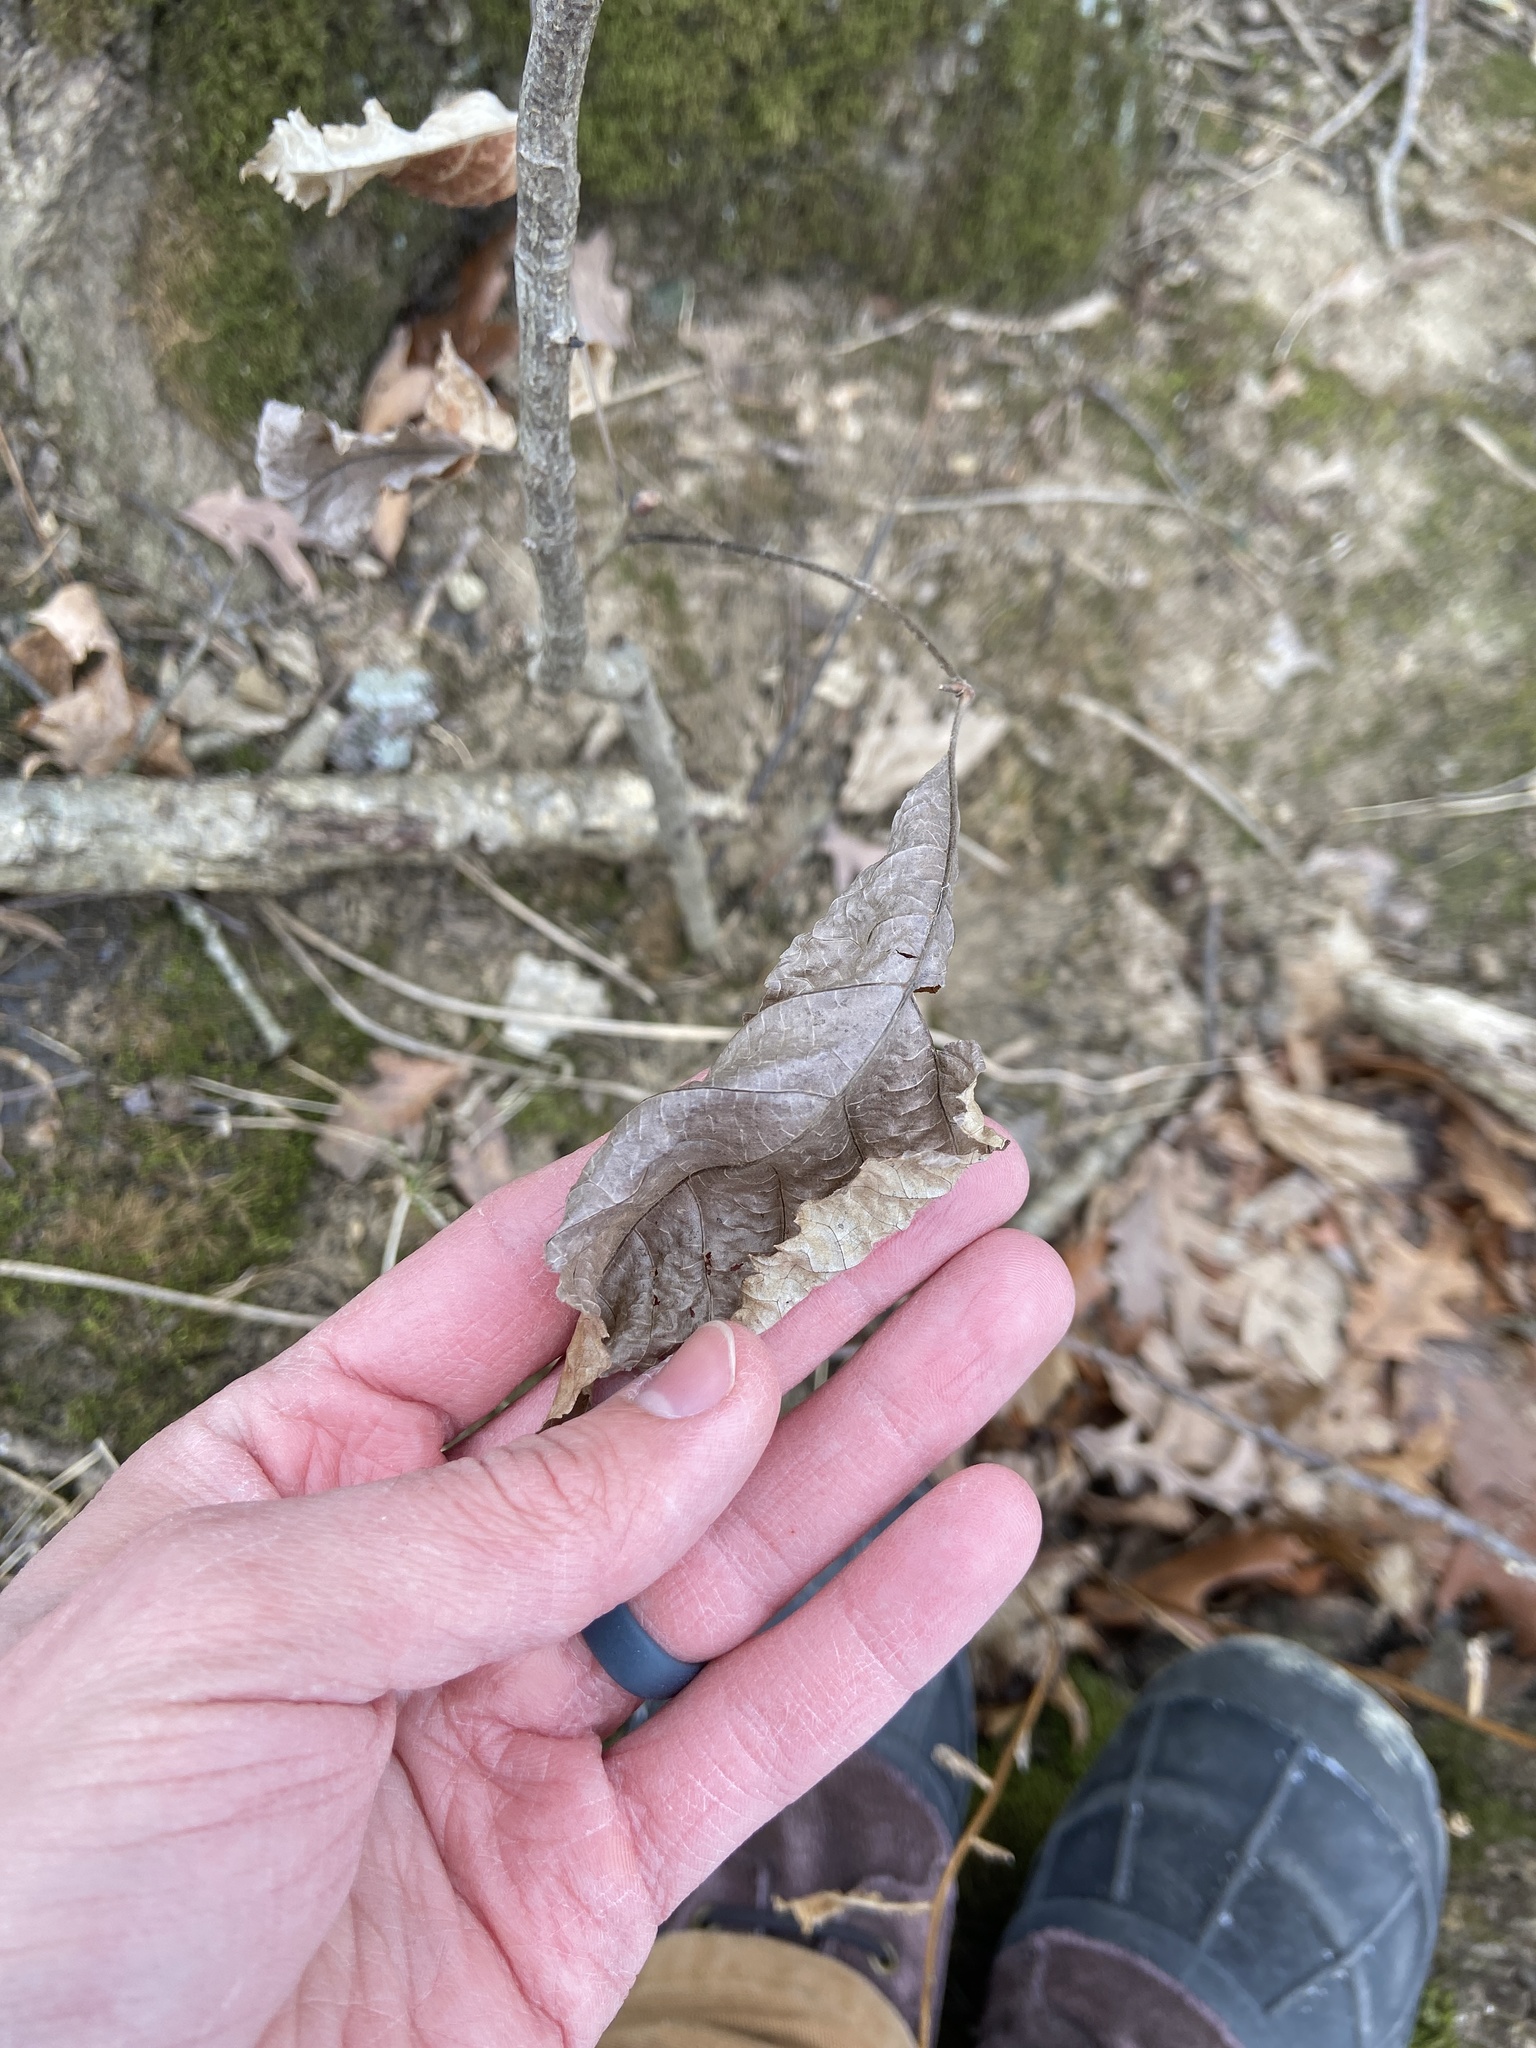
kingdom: Plantae
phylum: Tracheophyta
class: Magnoliopsida
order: Fagales
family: Juglandaceae
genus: Carya
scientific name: Carya ovata
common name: Shagbark hickory
